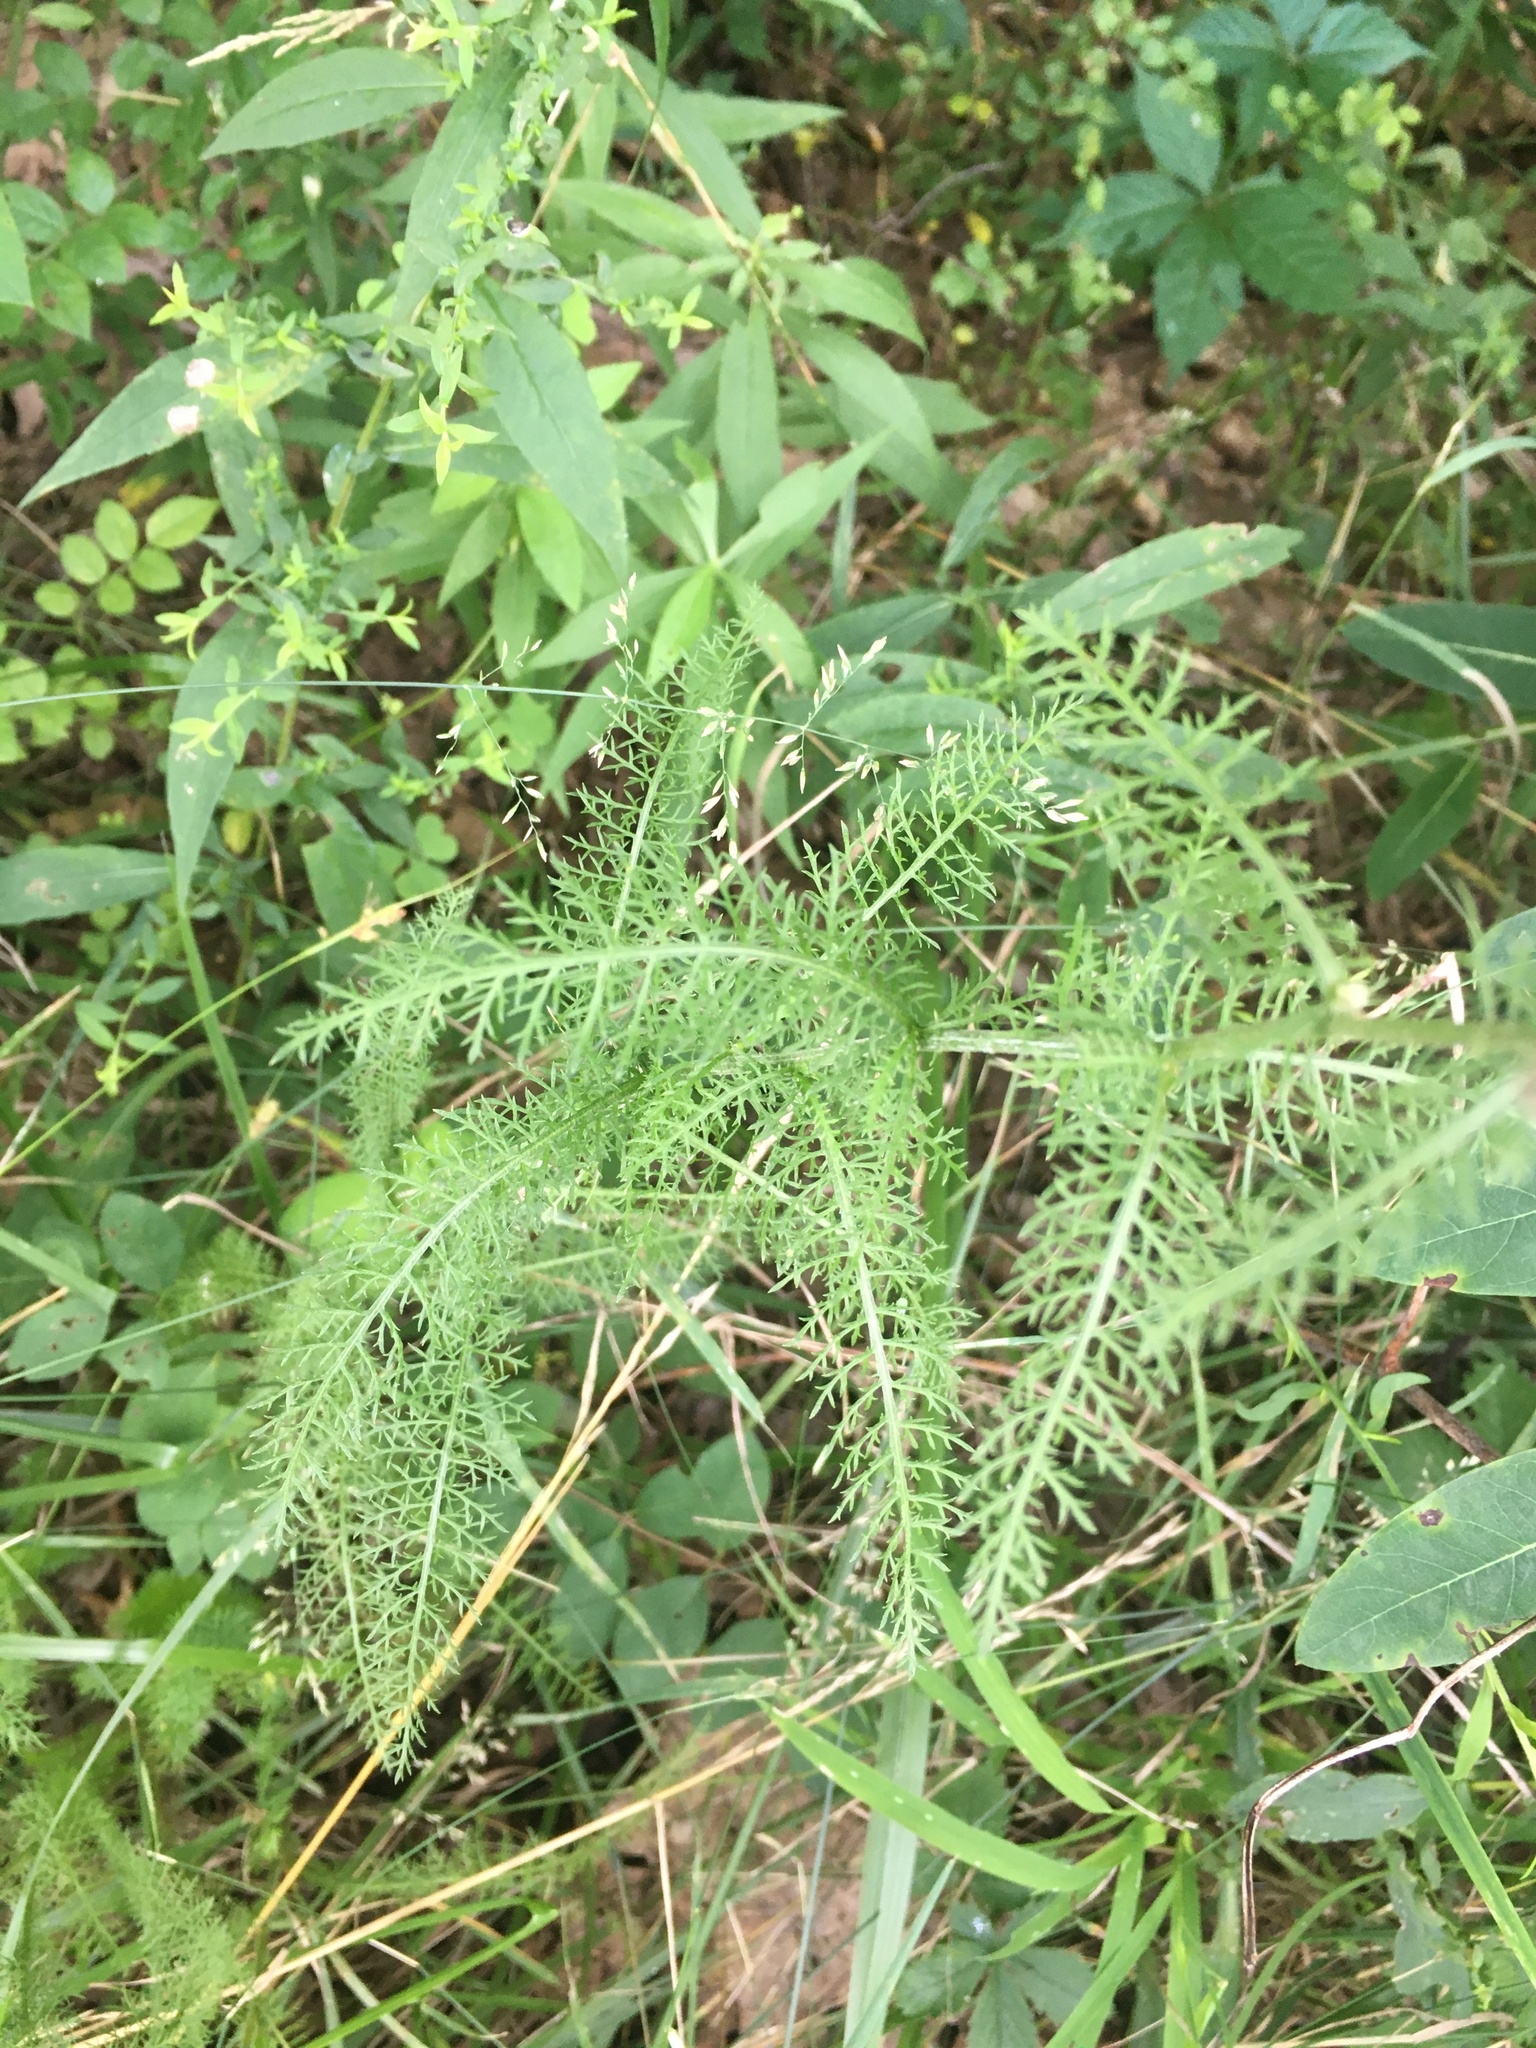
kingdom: Plantae
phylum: Tracheophyta
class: Magnoliopsida
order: Asterales
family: Asteraceae
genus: Achillea
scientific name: Achillea millefolium
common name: Yarrow
